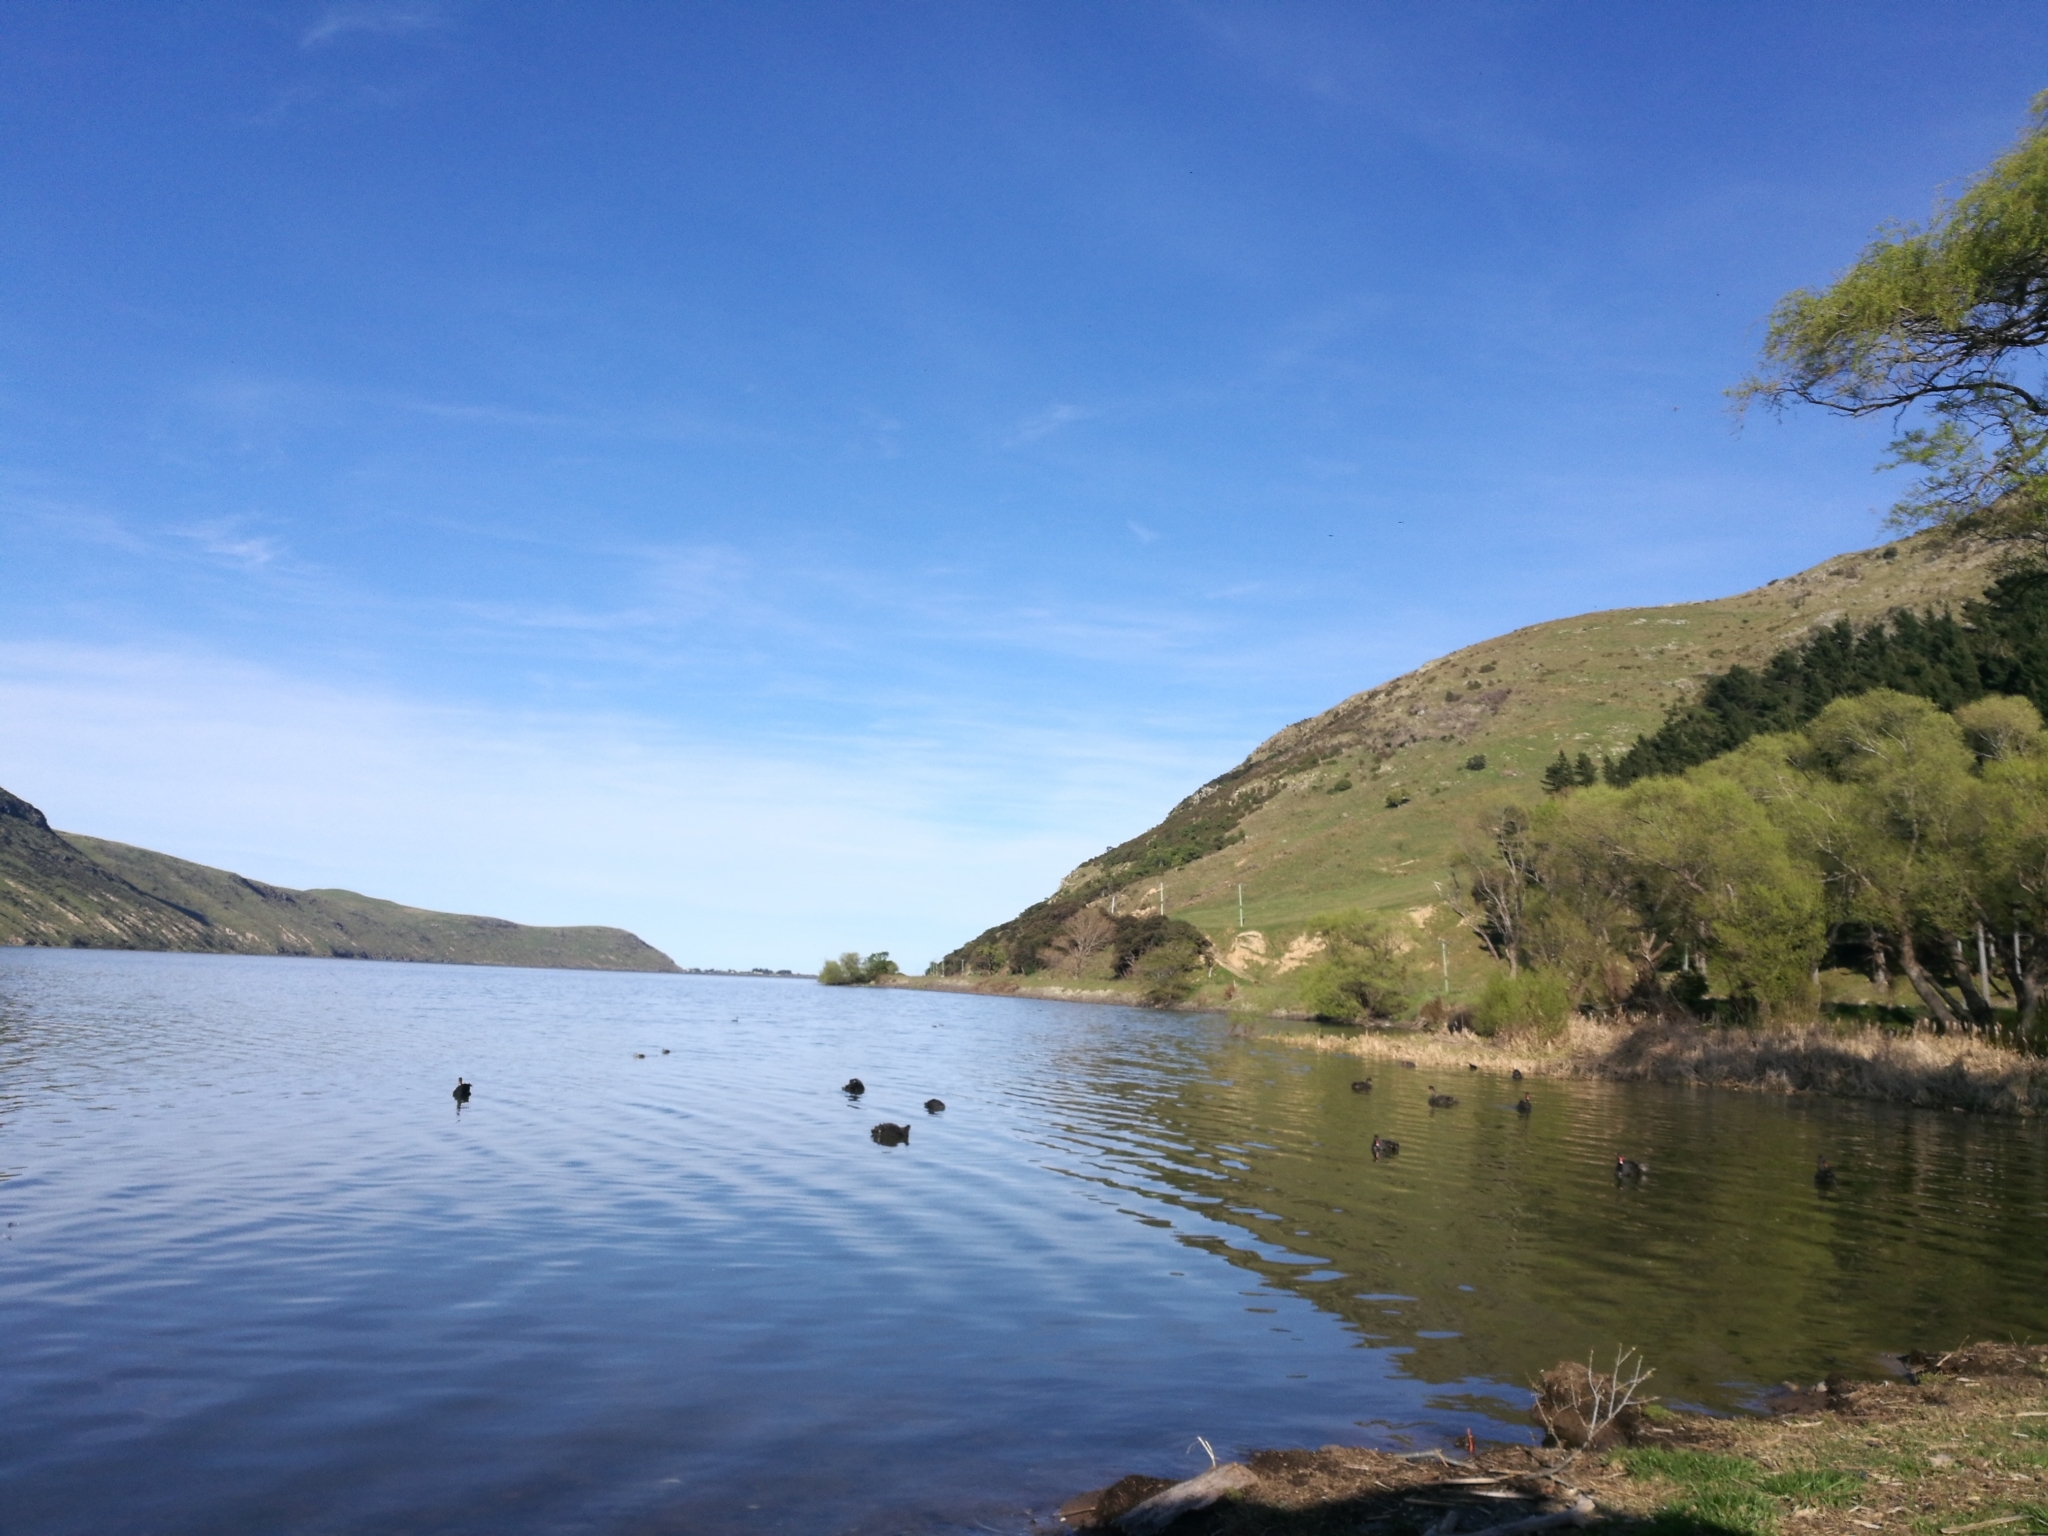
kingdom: Animalia
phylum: Chordata
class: Aves
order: Anseriformes
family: Anatidae
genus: Cygnus
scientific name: Cygnus atratus
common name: Black swan
